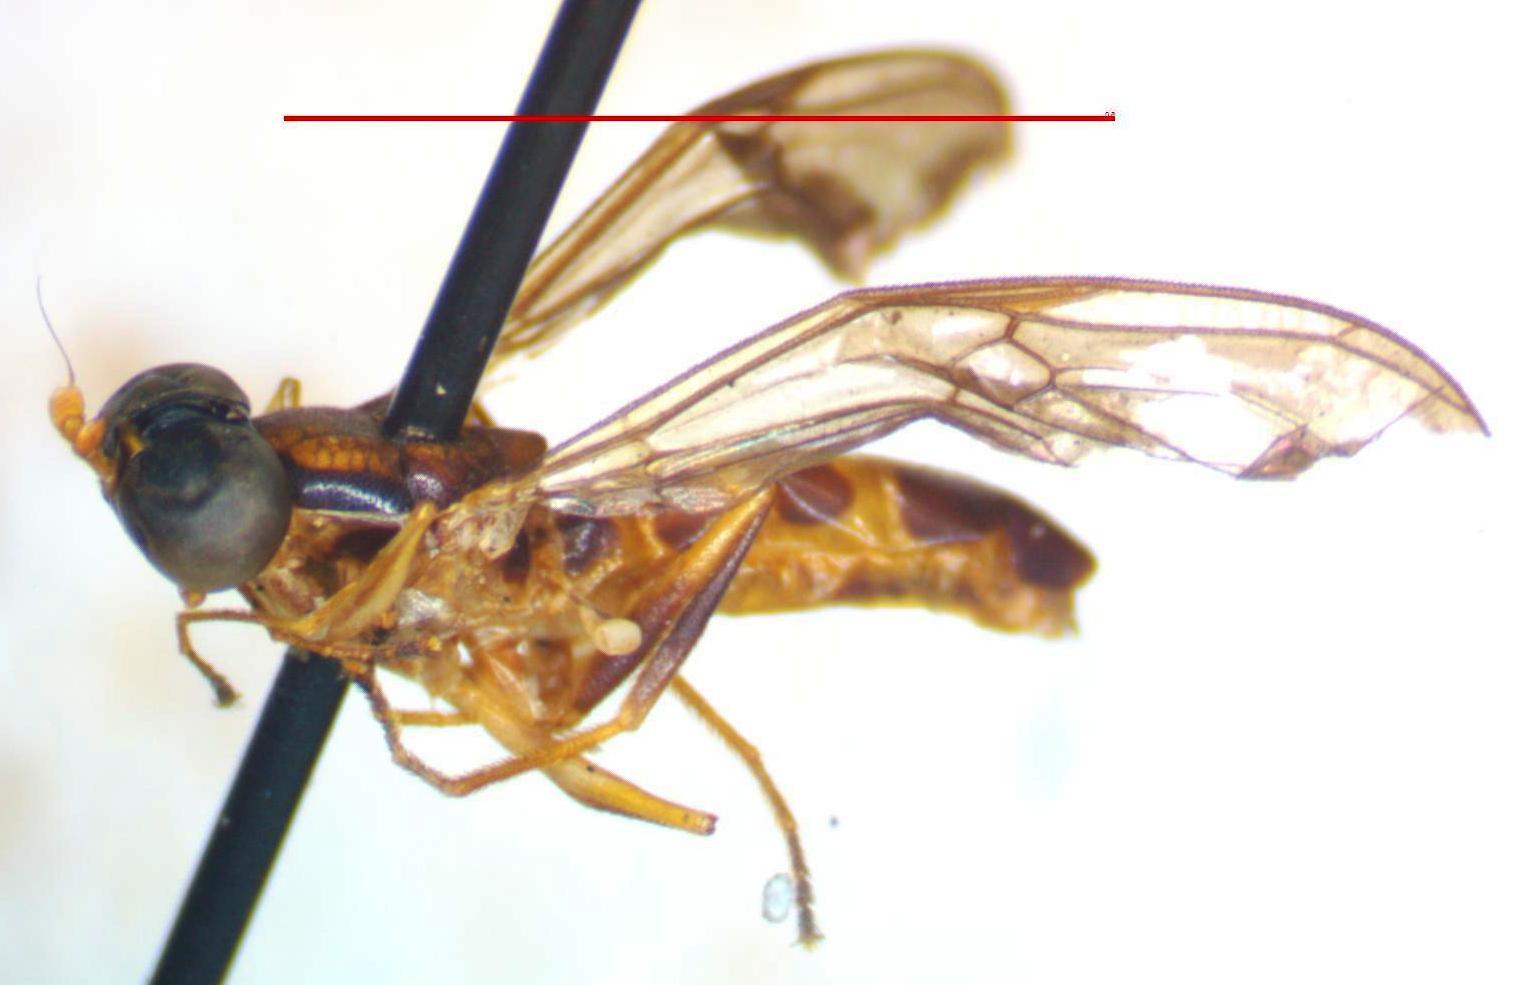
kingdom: Animalia
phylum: Arthropoda
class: Insecta
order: Diptera
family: Stratiomyidae
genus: Merosargus
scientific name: Merosargus rotundatus
